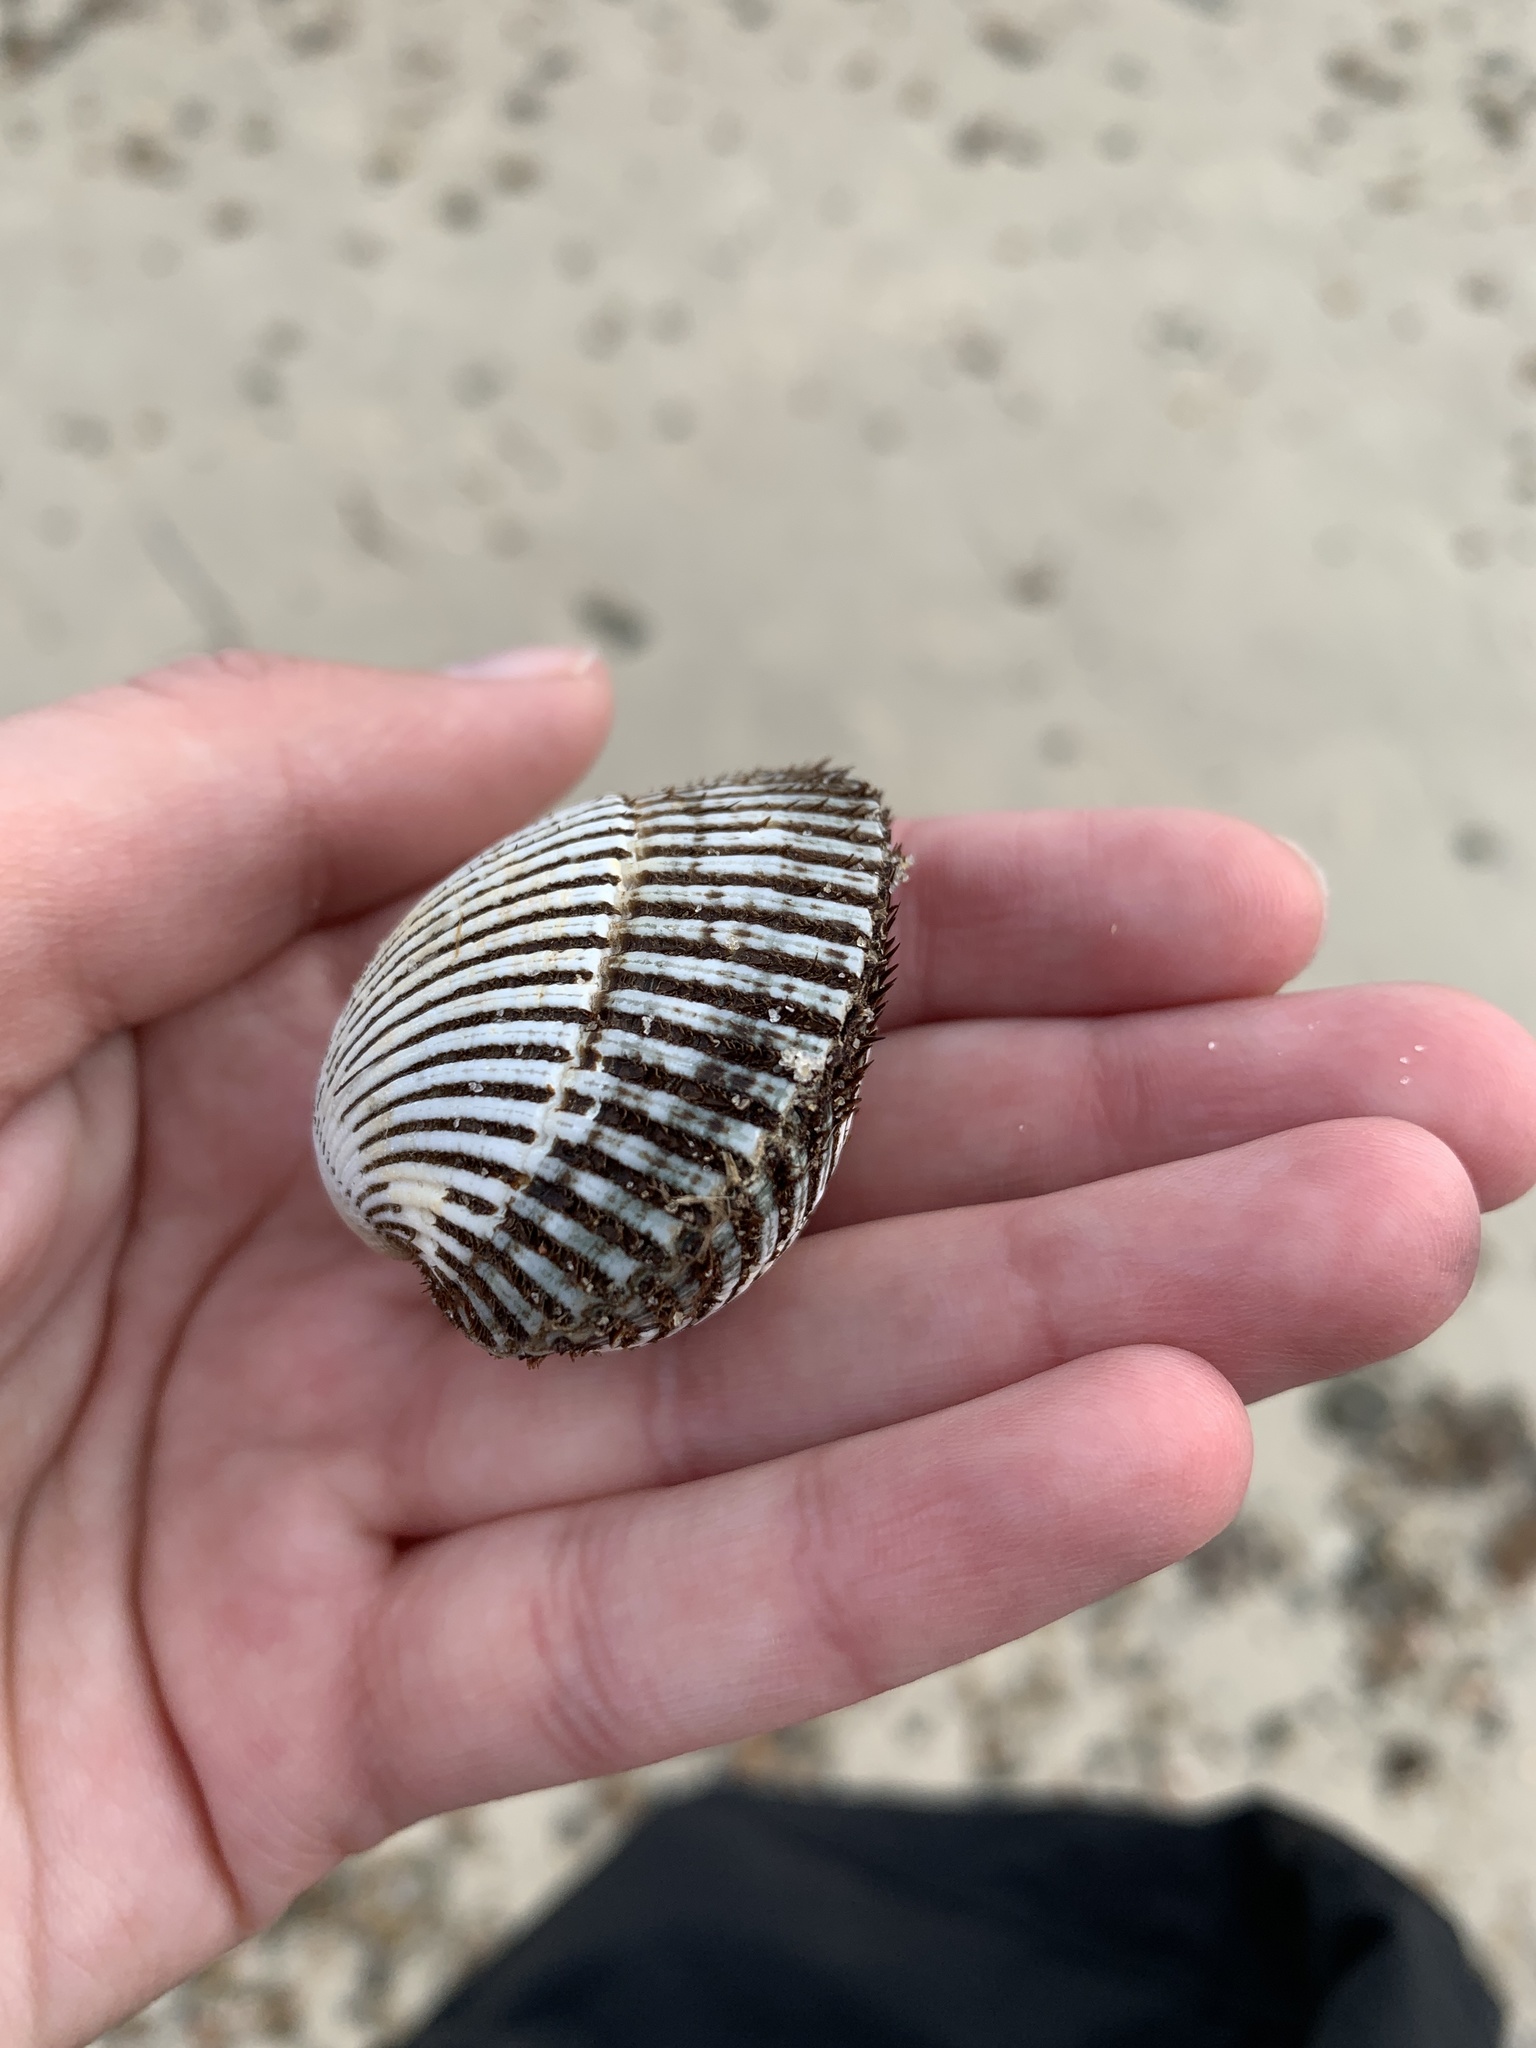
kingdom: Animalia
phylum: Mollusca
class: Bivalvia
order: Arcida
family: Arcidae
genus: Lunarca
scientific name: Lunarca ovalis
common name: Blood ark
